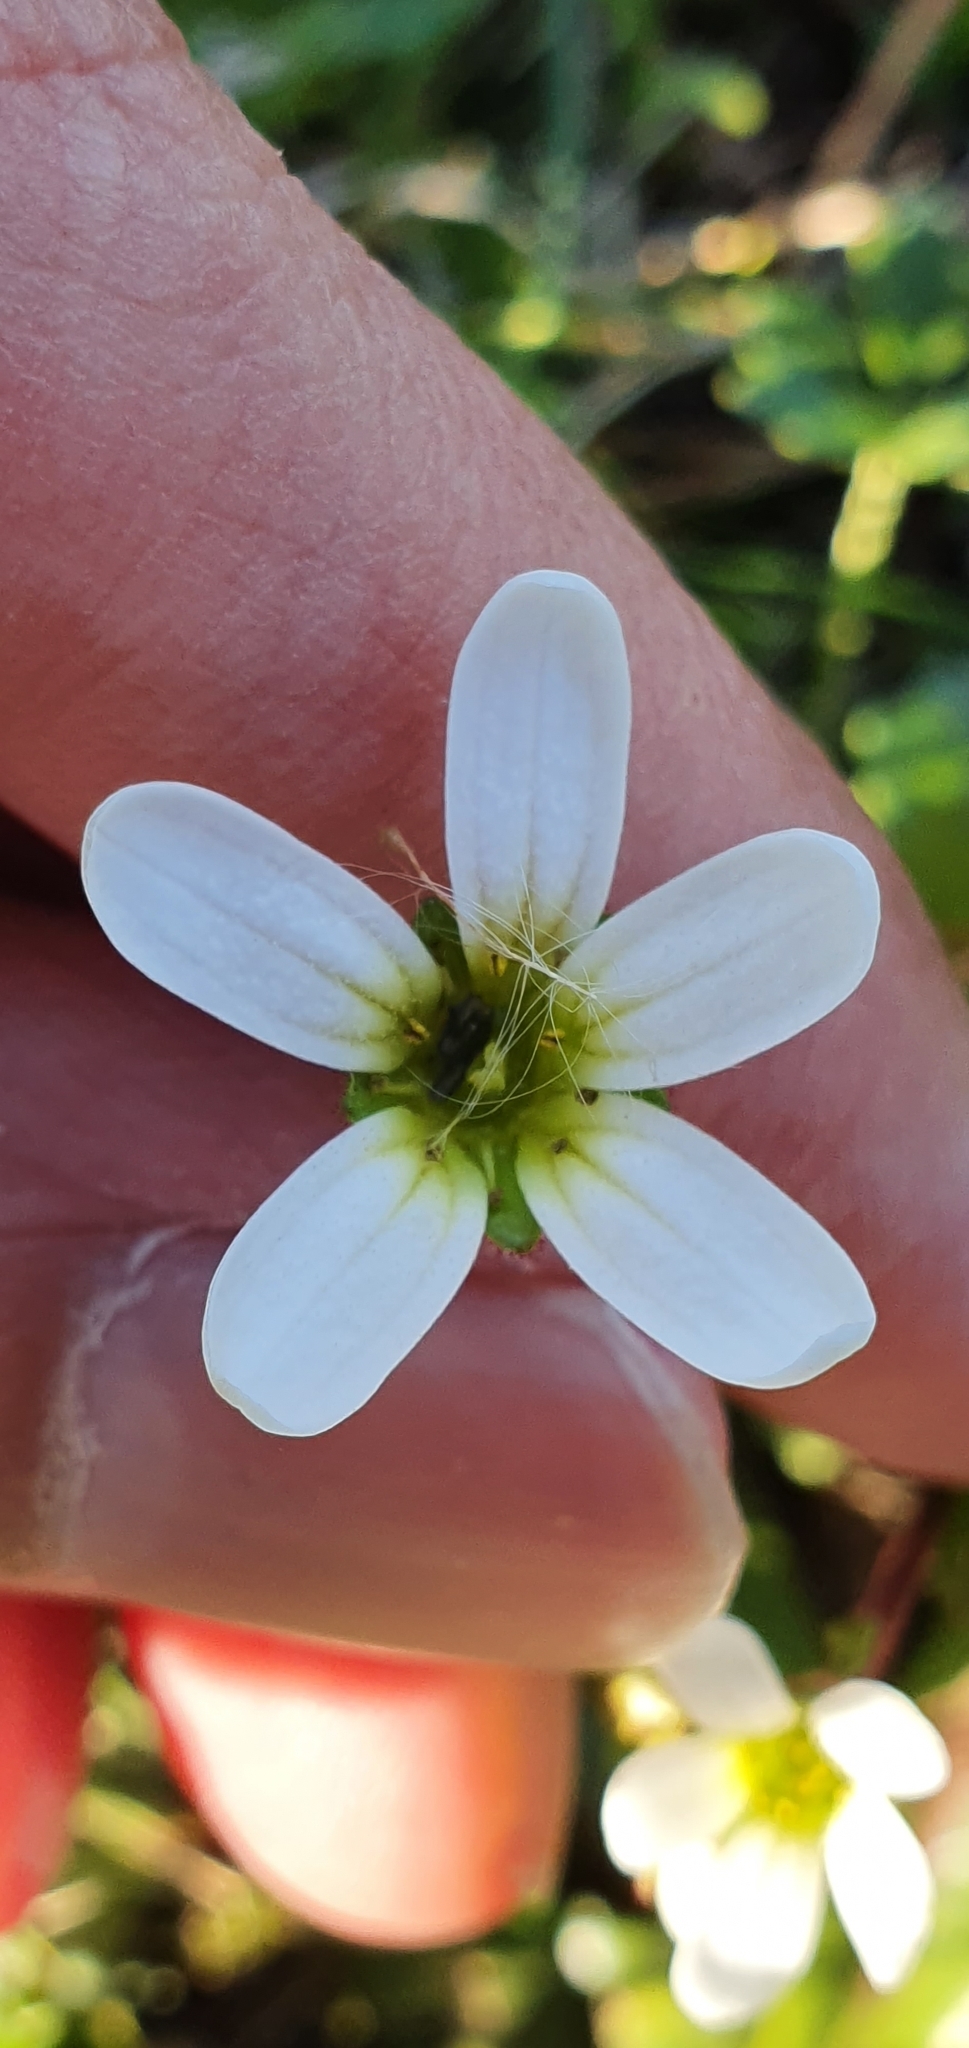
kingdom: Plantae
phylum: Tracheophyta
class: Magnoliopsida
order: Saxifragales
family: Saxifragaceae
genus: Saxifraga
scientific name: Saxifraga carpetana
